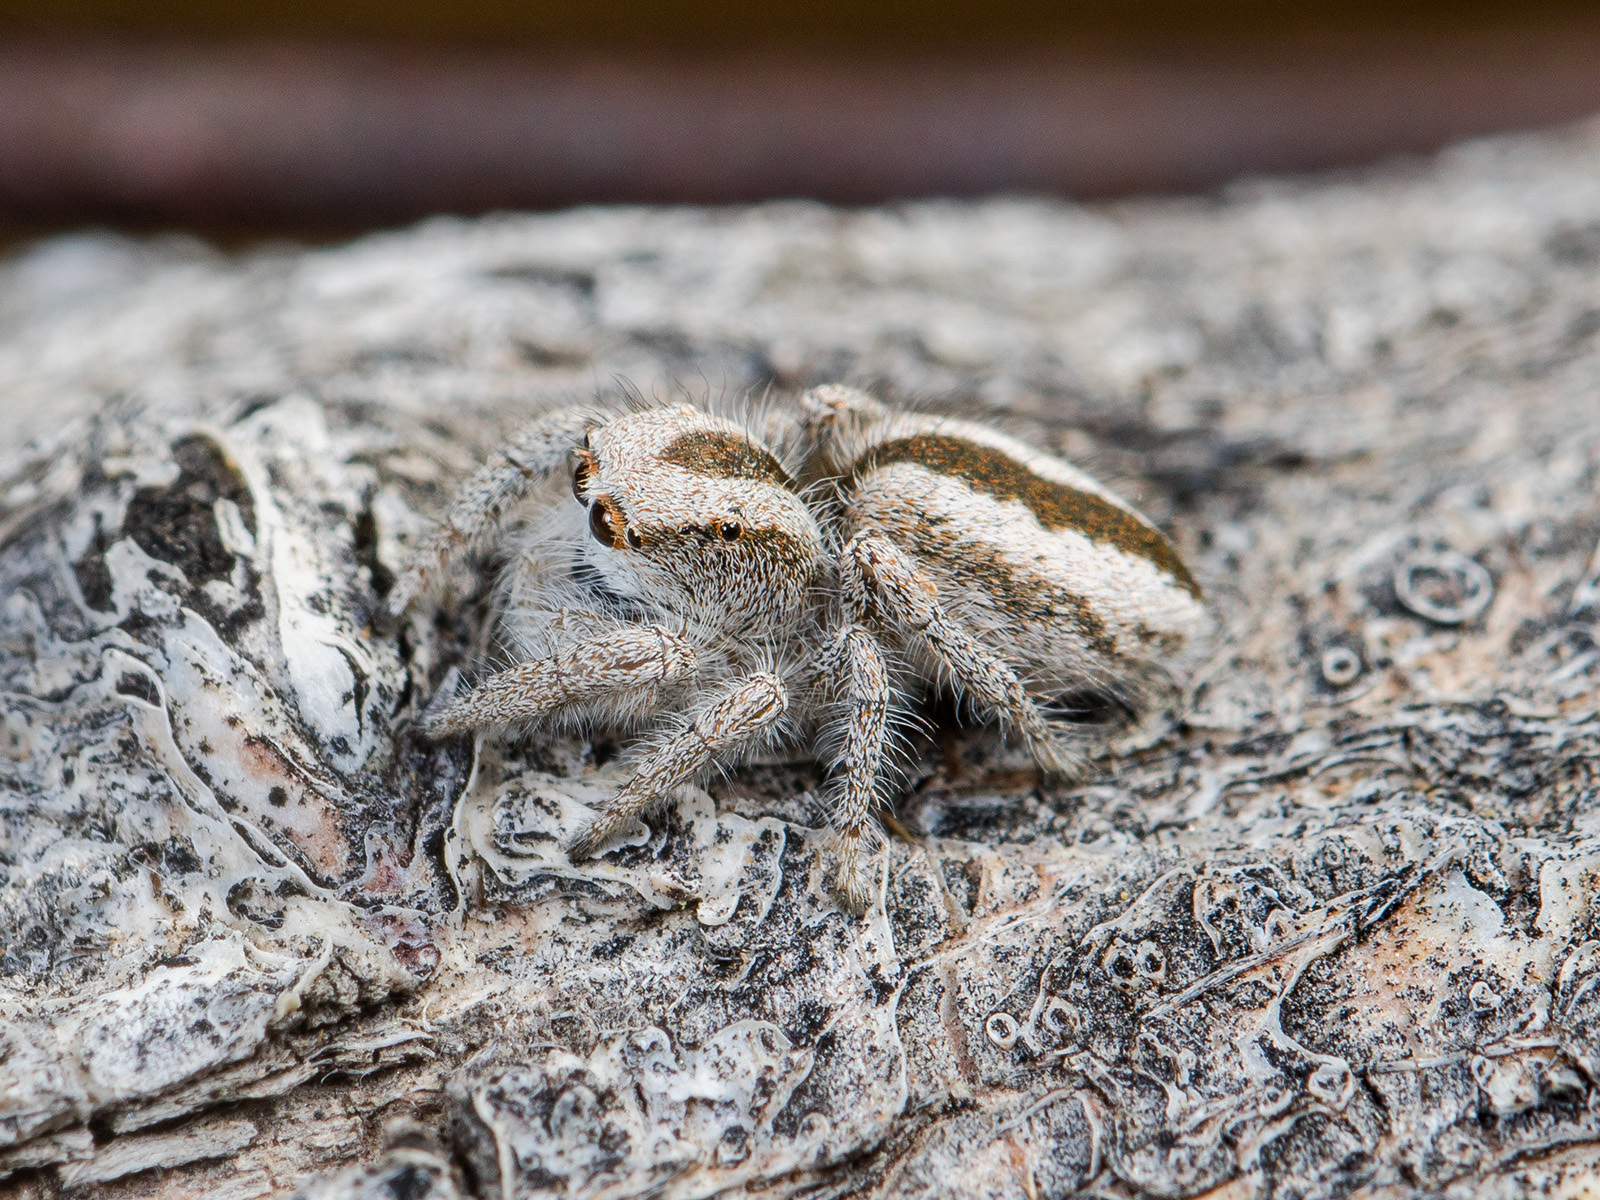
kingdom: Animalia
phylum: Arthropoda
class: Arachnida
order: Araneae
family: Salticidae
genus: Pseudomogrus
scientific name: Pseudomogrus validus
